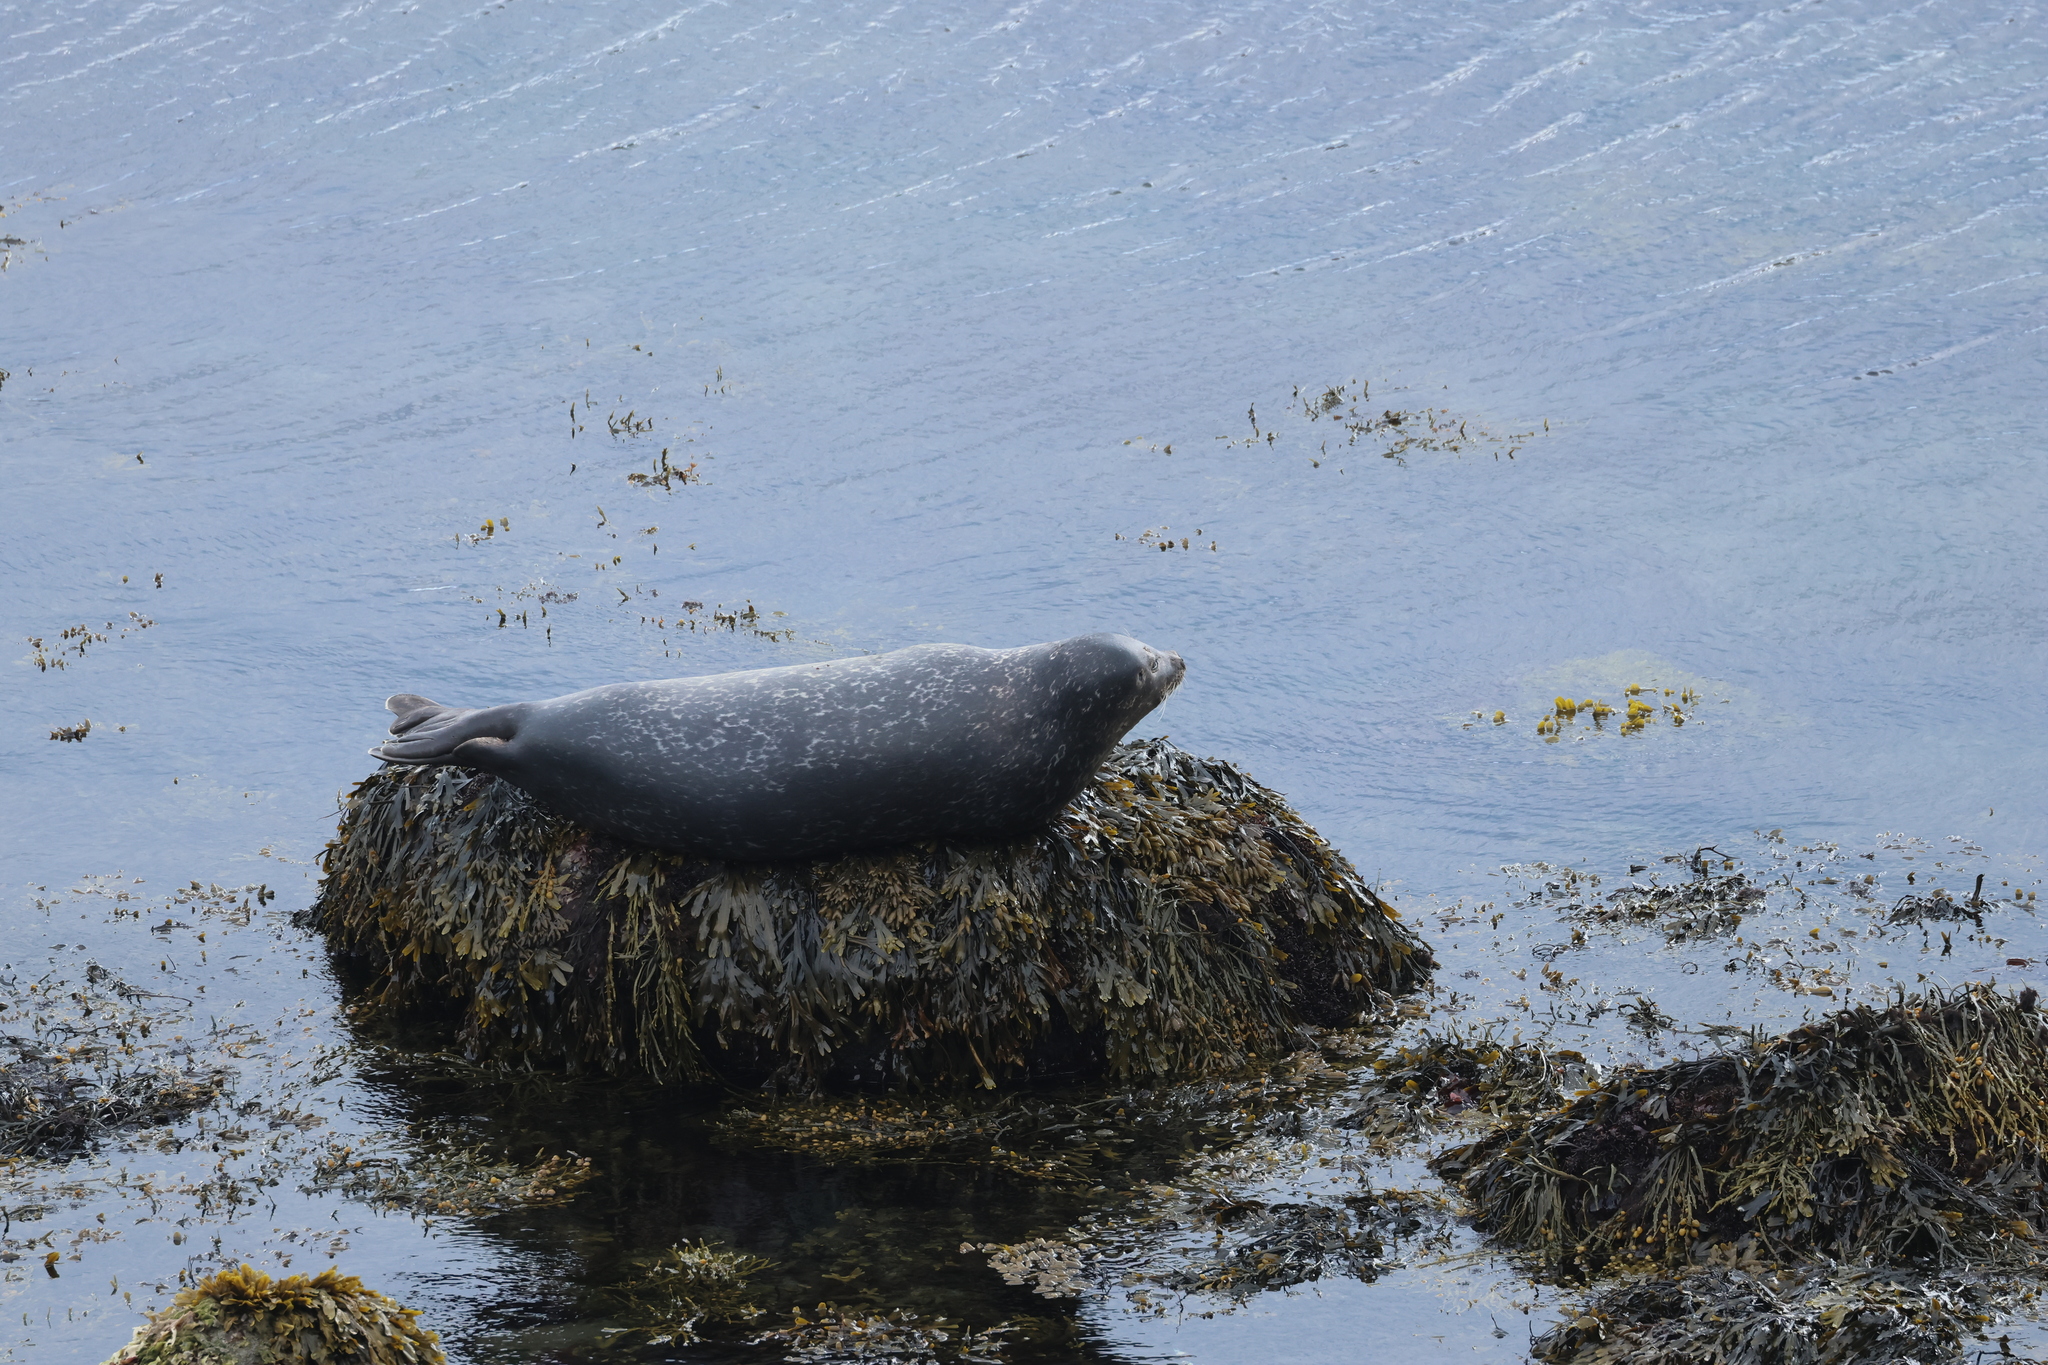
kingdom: Animalia
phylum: Chordata
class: Mammalia
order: Carnivora
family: Phocidae
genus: Phoca
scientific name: Phoca vitulina
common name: Harbor seal
